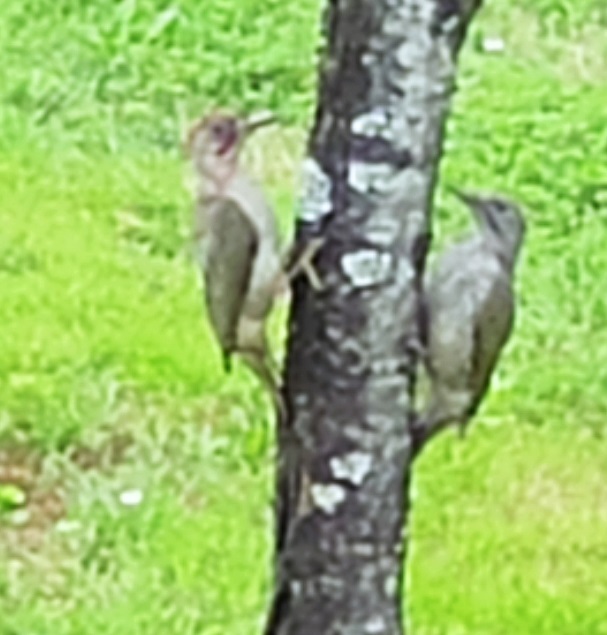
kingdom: Animalia
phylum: Chordata
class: Aves
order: Piciformes
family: Picidae
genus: Picus
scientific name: Picus sharpei
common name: Iberian green woodpecker
